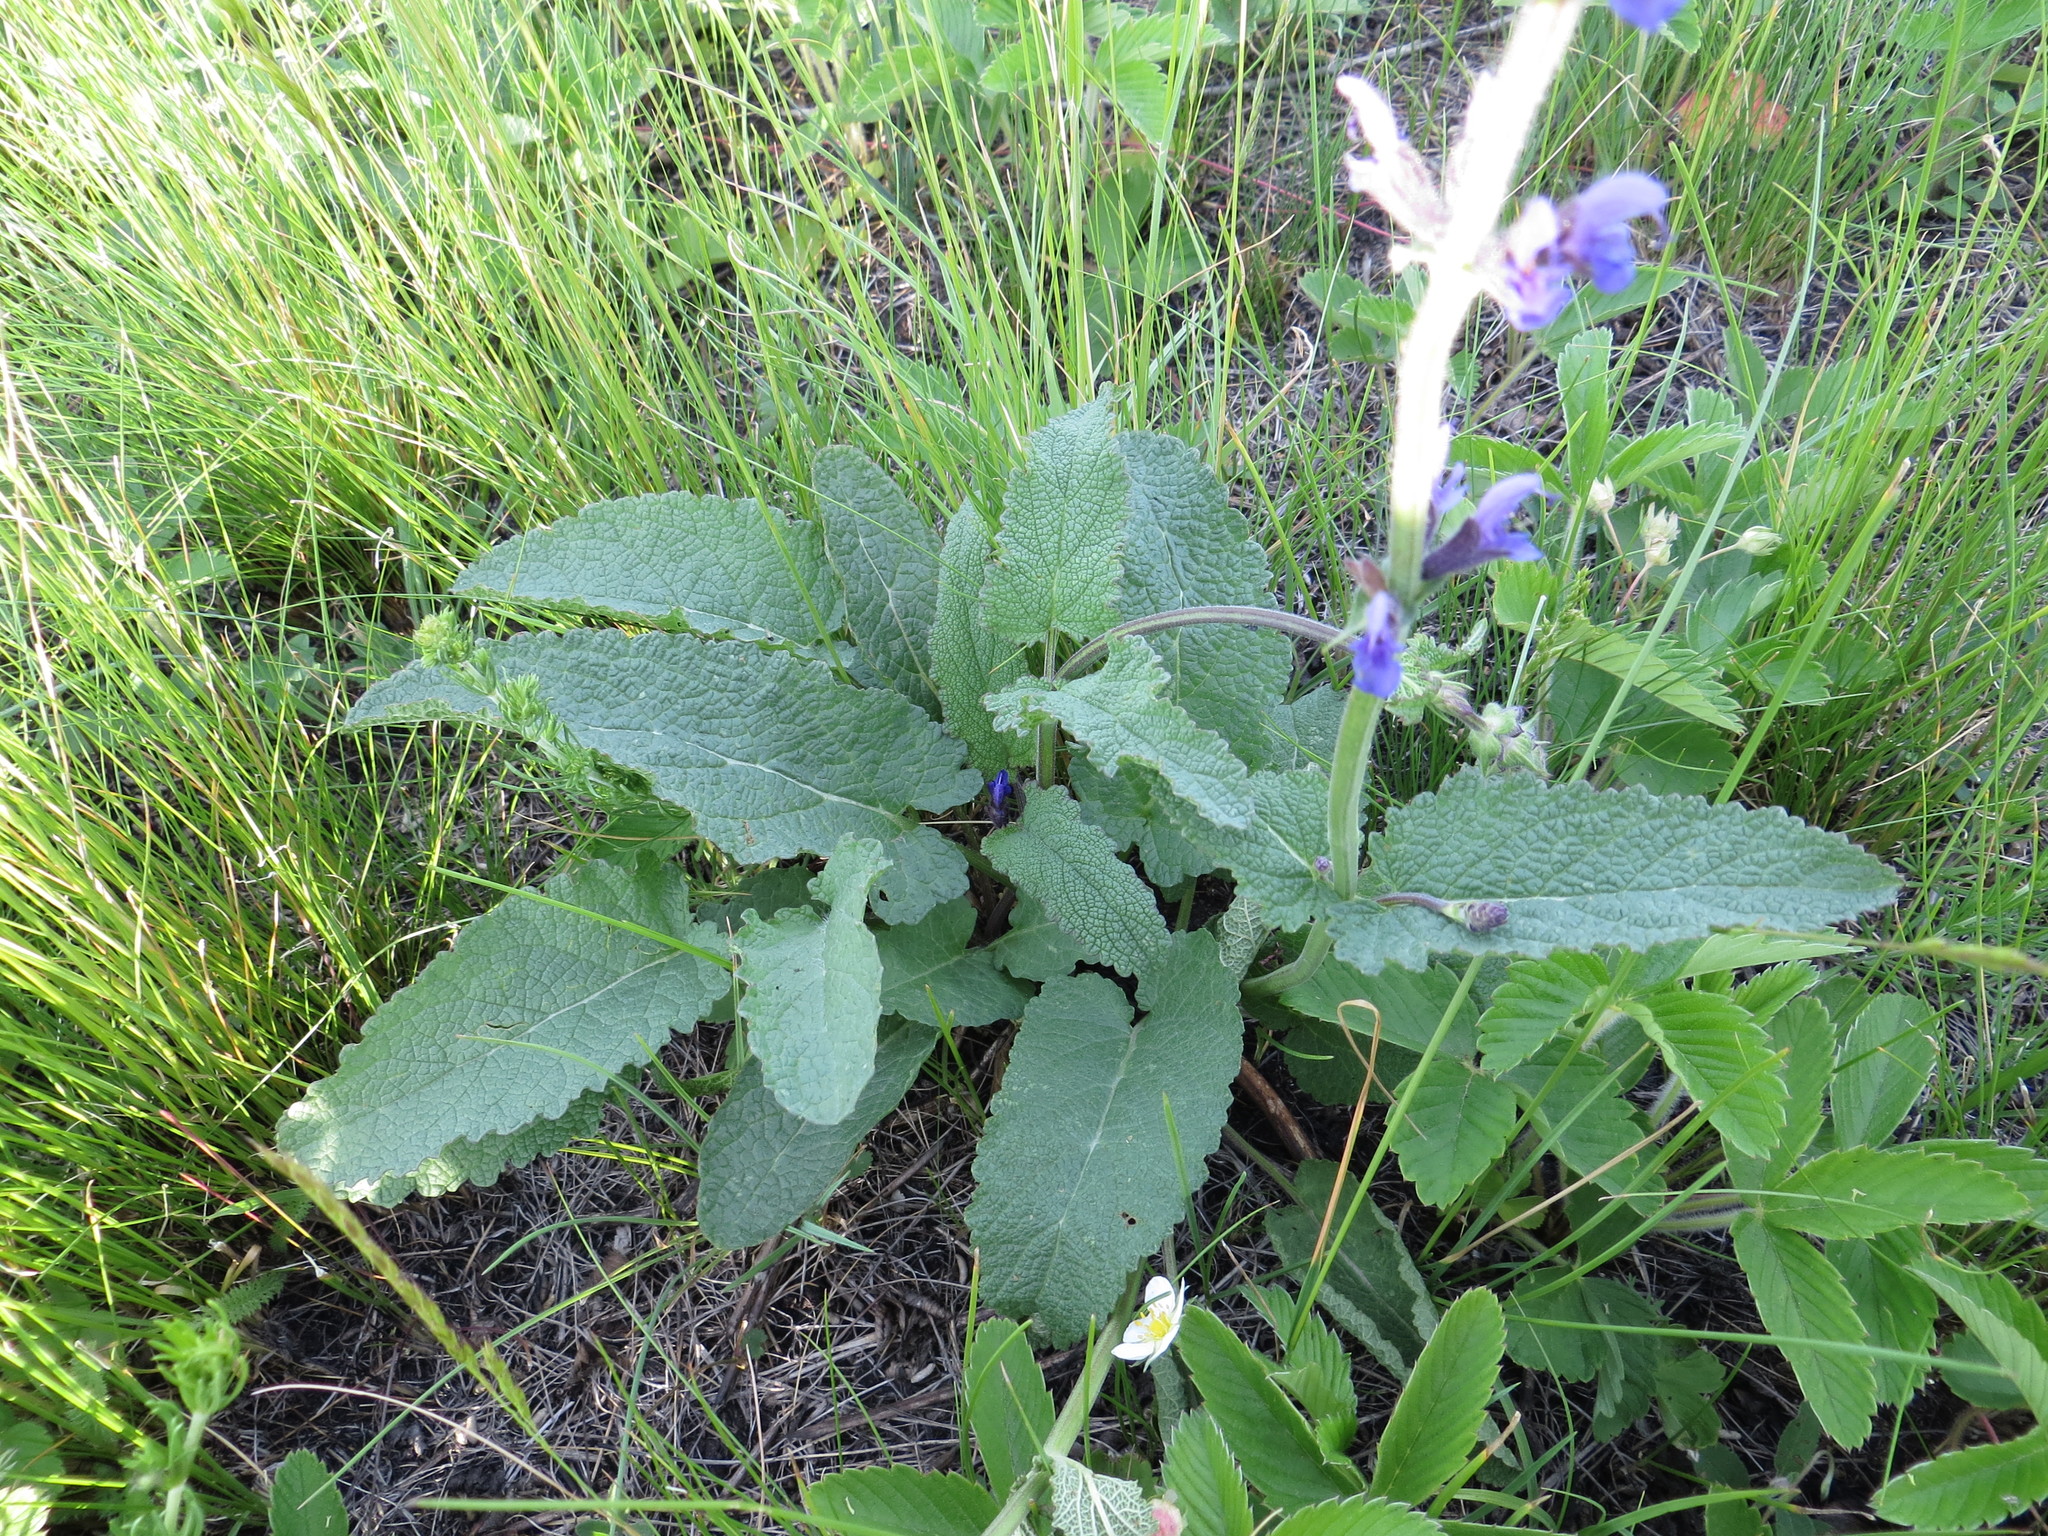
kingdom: Plantae
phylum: Tracheophyta
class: Magnoliopsida
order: Lamiales
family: Lamiaceae
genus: Salvia
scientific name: Salvia dumetorum
